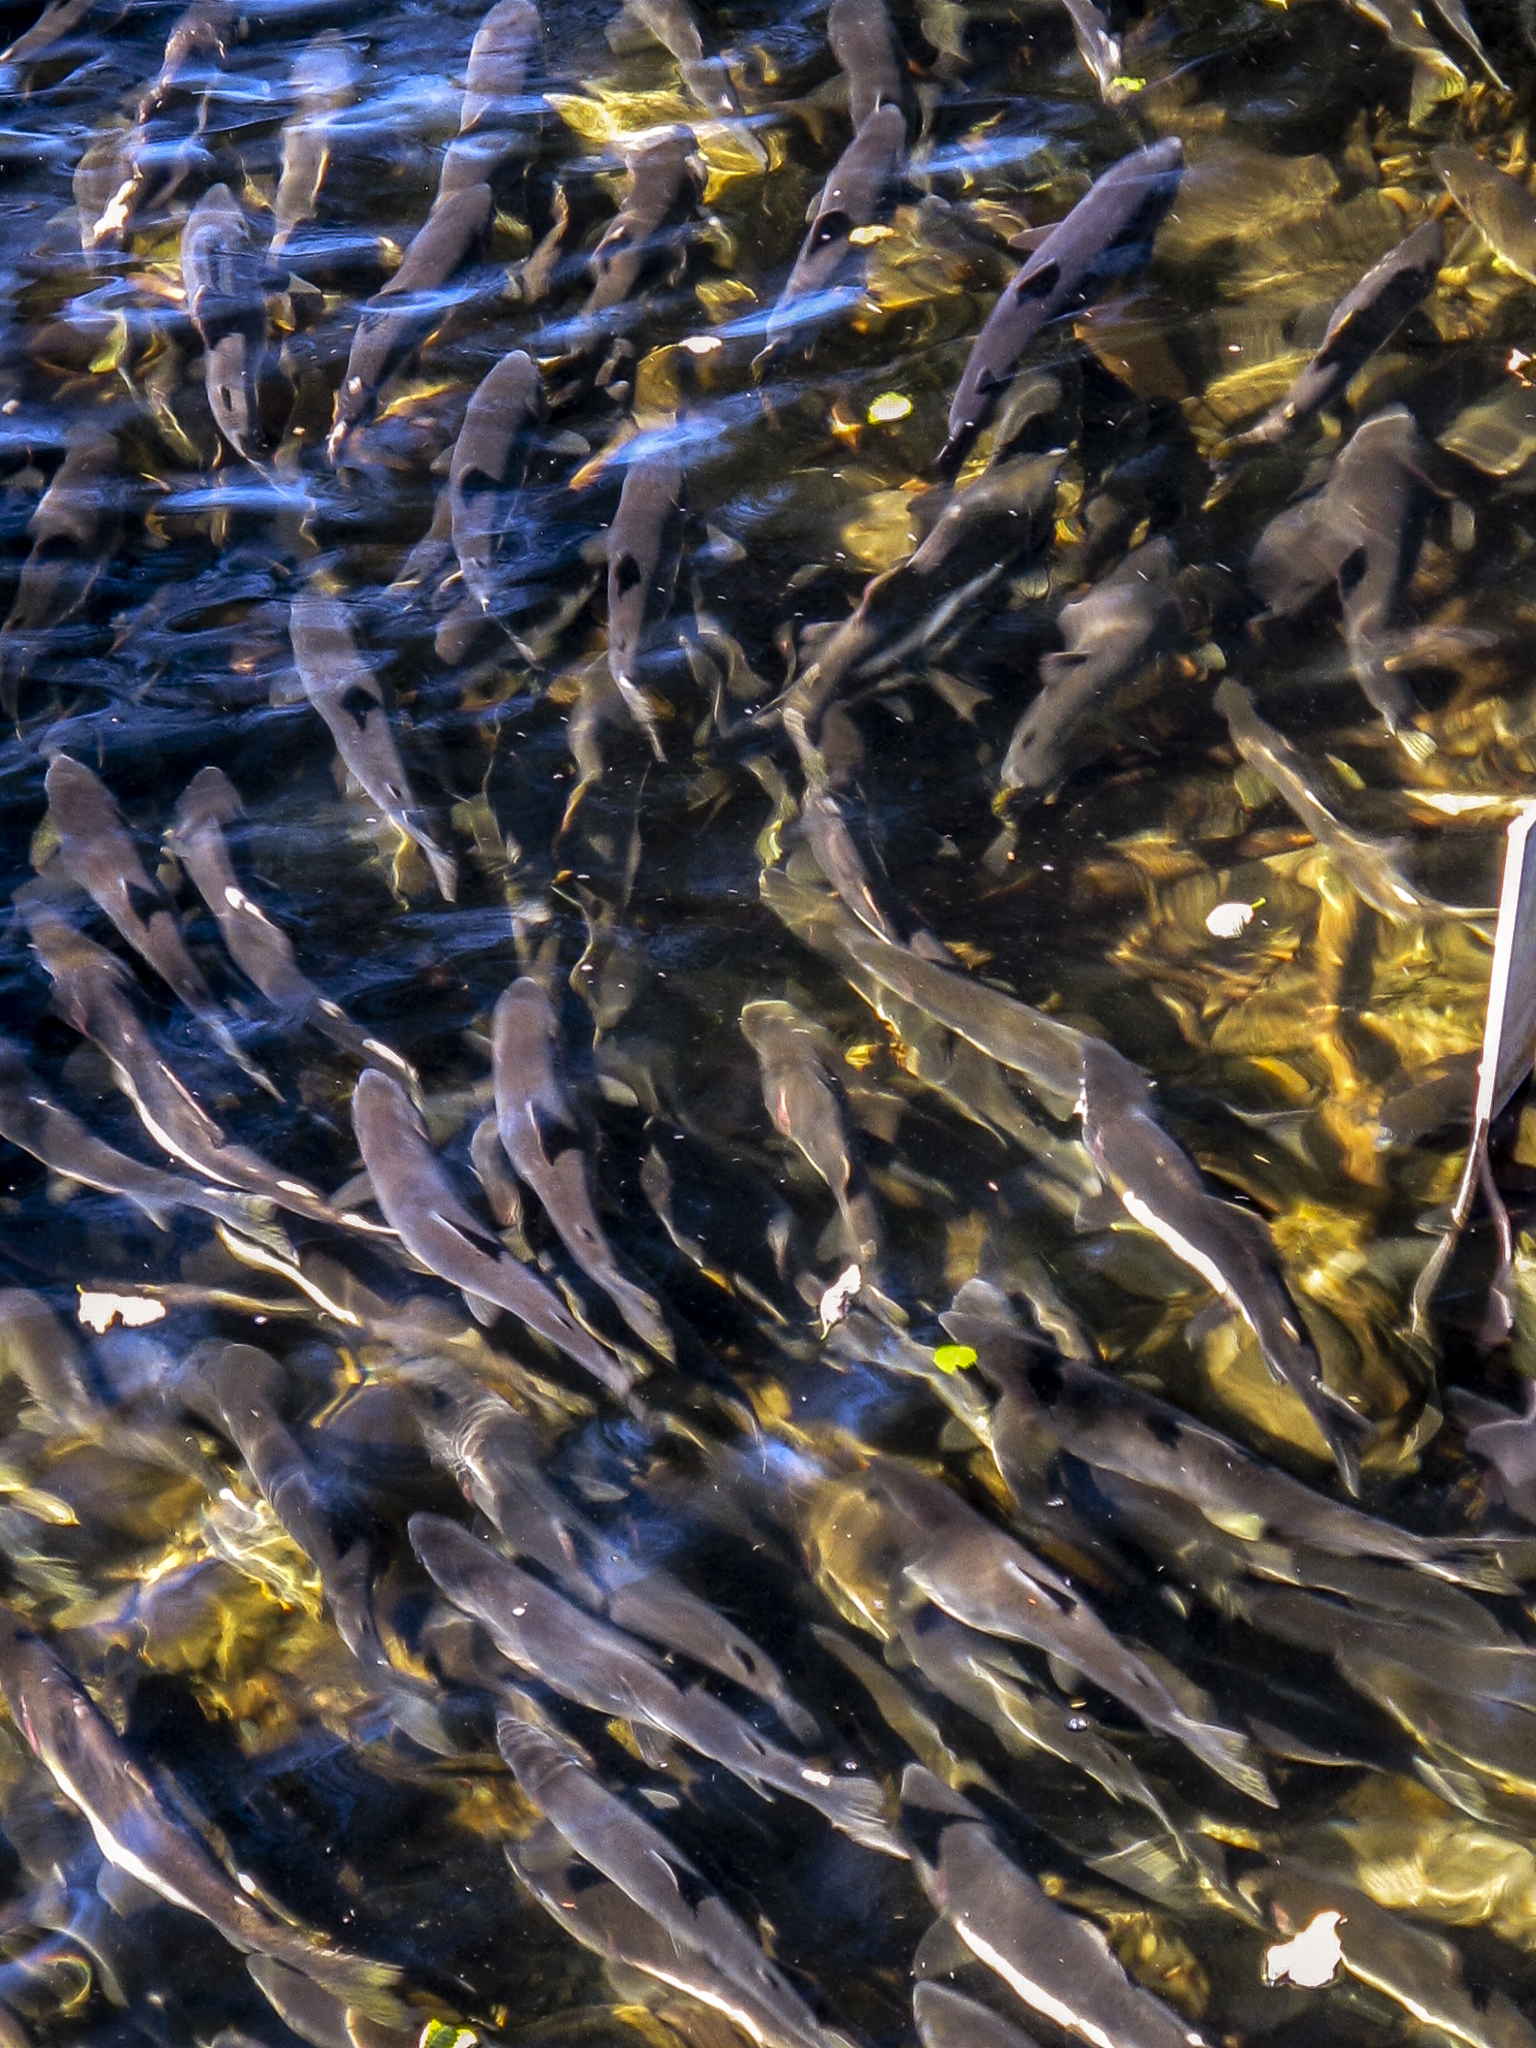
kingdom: Animalia
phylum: Chordata
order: Salmoniformes
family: Salmonidae
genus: Oncorhynchus
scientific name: Oncorhynchus gorbuscha
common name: Humpback salmon
